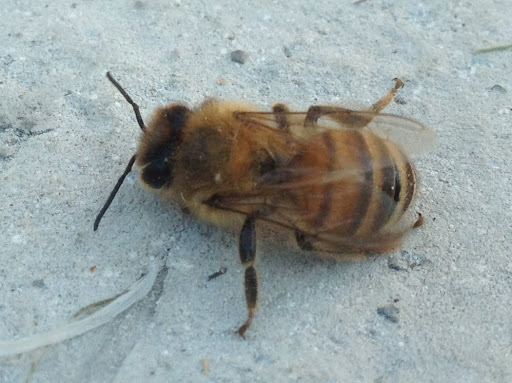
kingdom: Animalia
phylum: Arthropoda
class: Insecta
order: Hymenoptera
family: Apidae
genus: Apis
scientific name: Apis mellifera
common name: Honey bee
